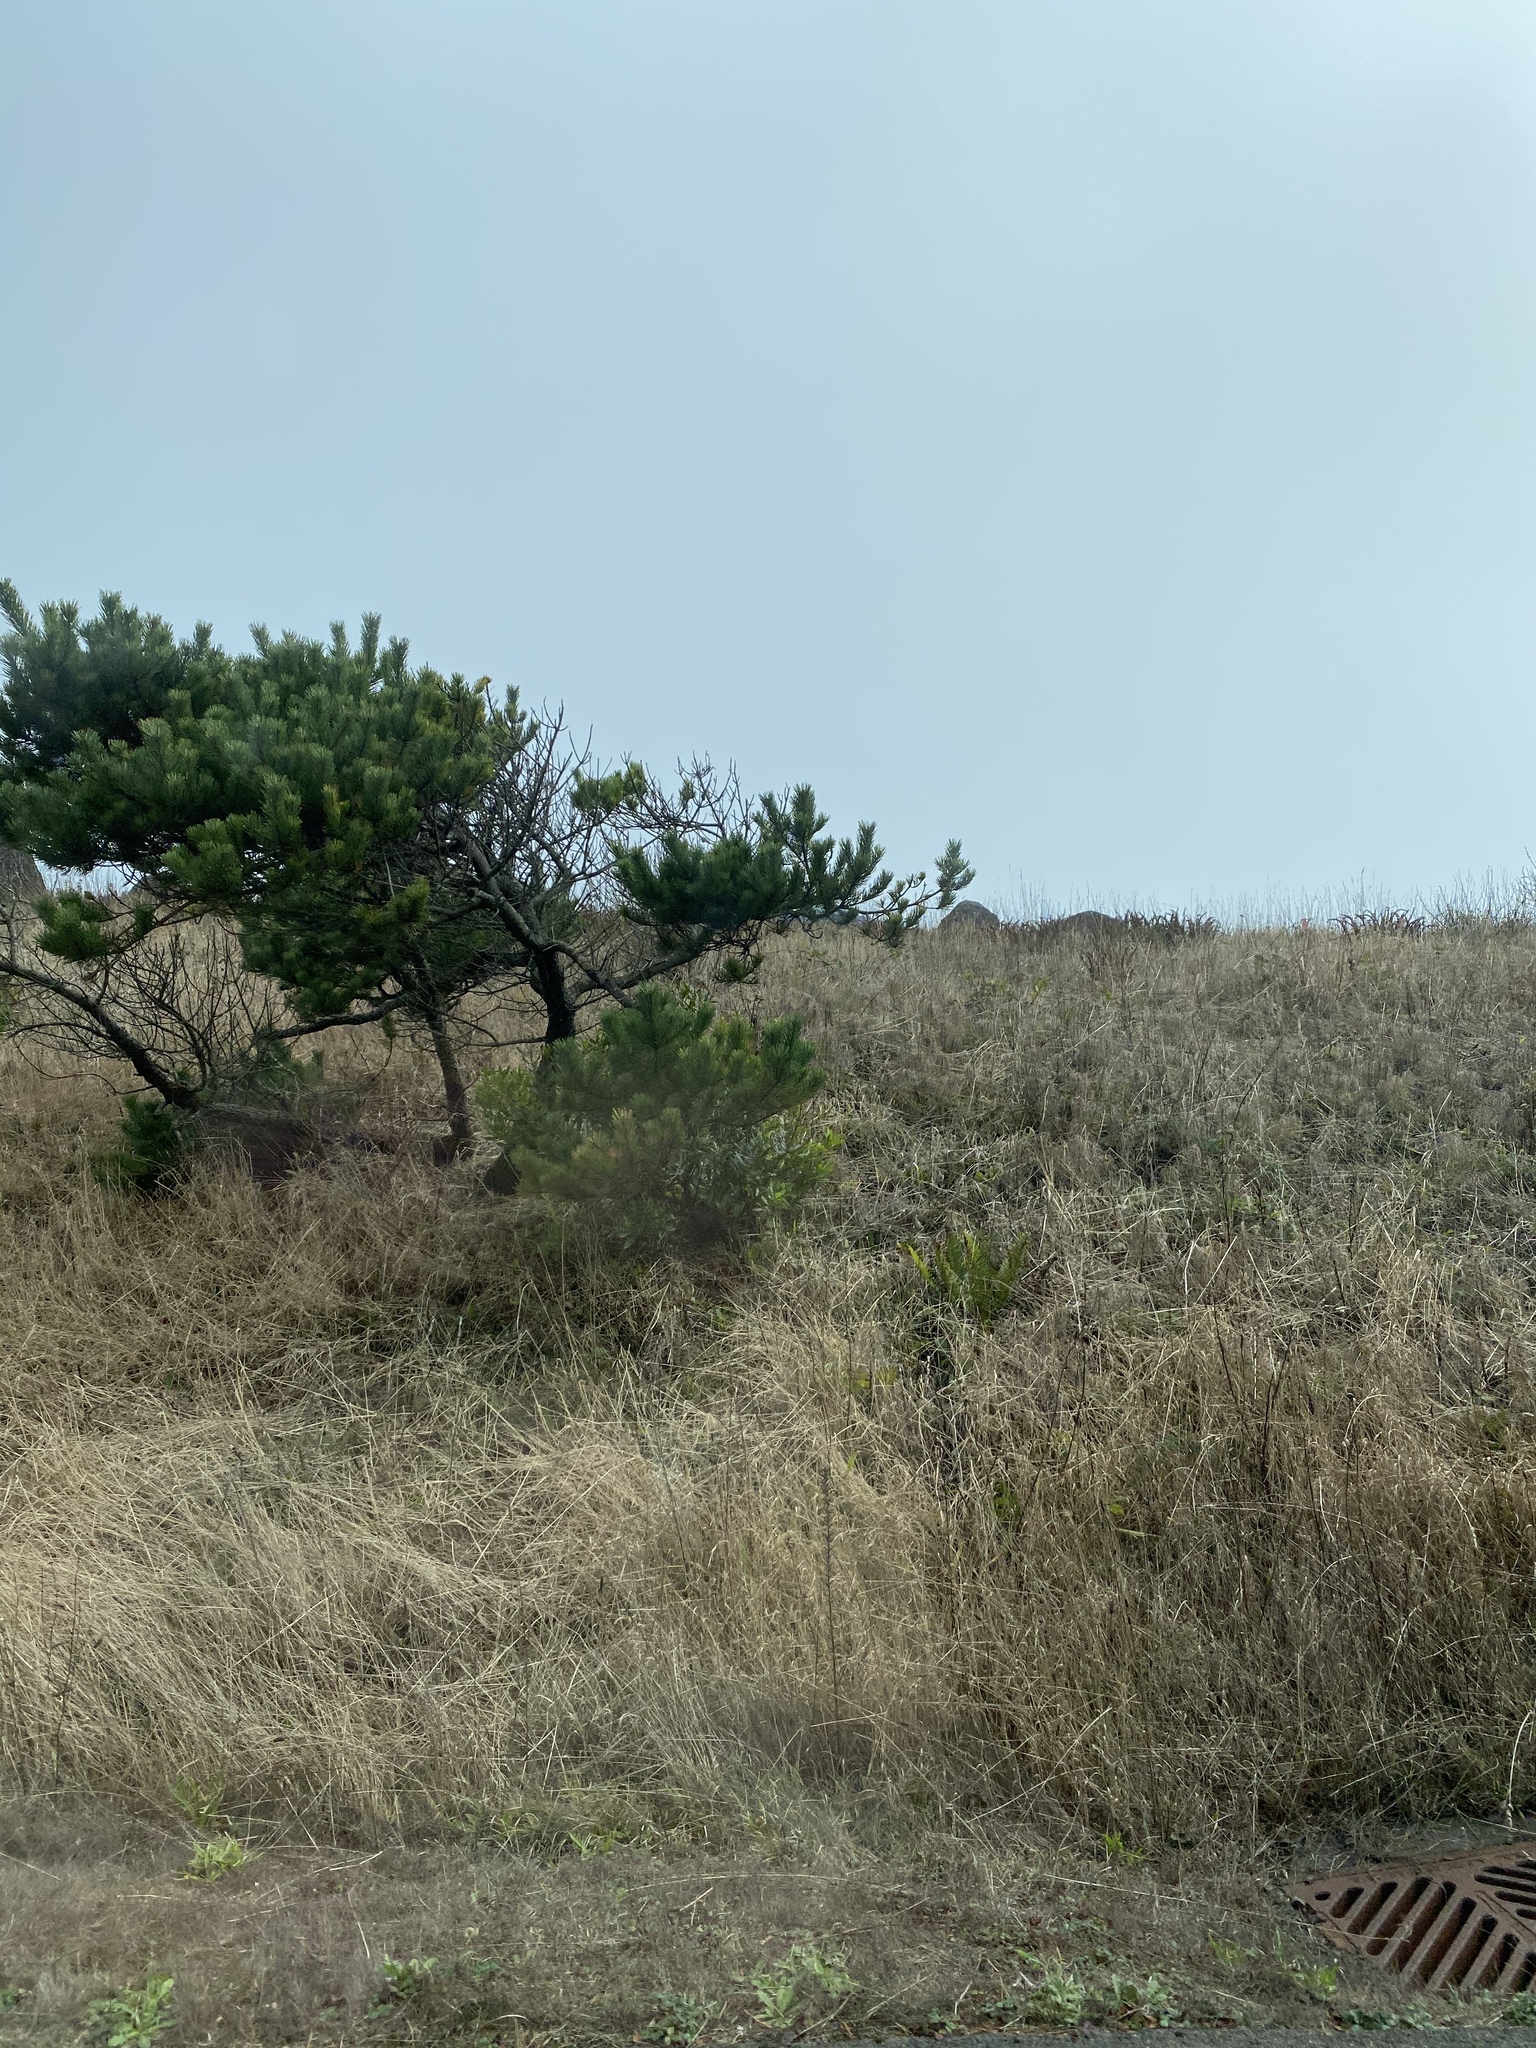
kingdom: Plantae
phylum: Tracheophyta
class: Pinopsida
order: Pinales
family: Pinaceae
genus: Pinus
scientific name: Pinus contorta
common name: Lodgepole pine
